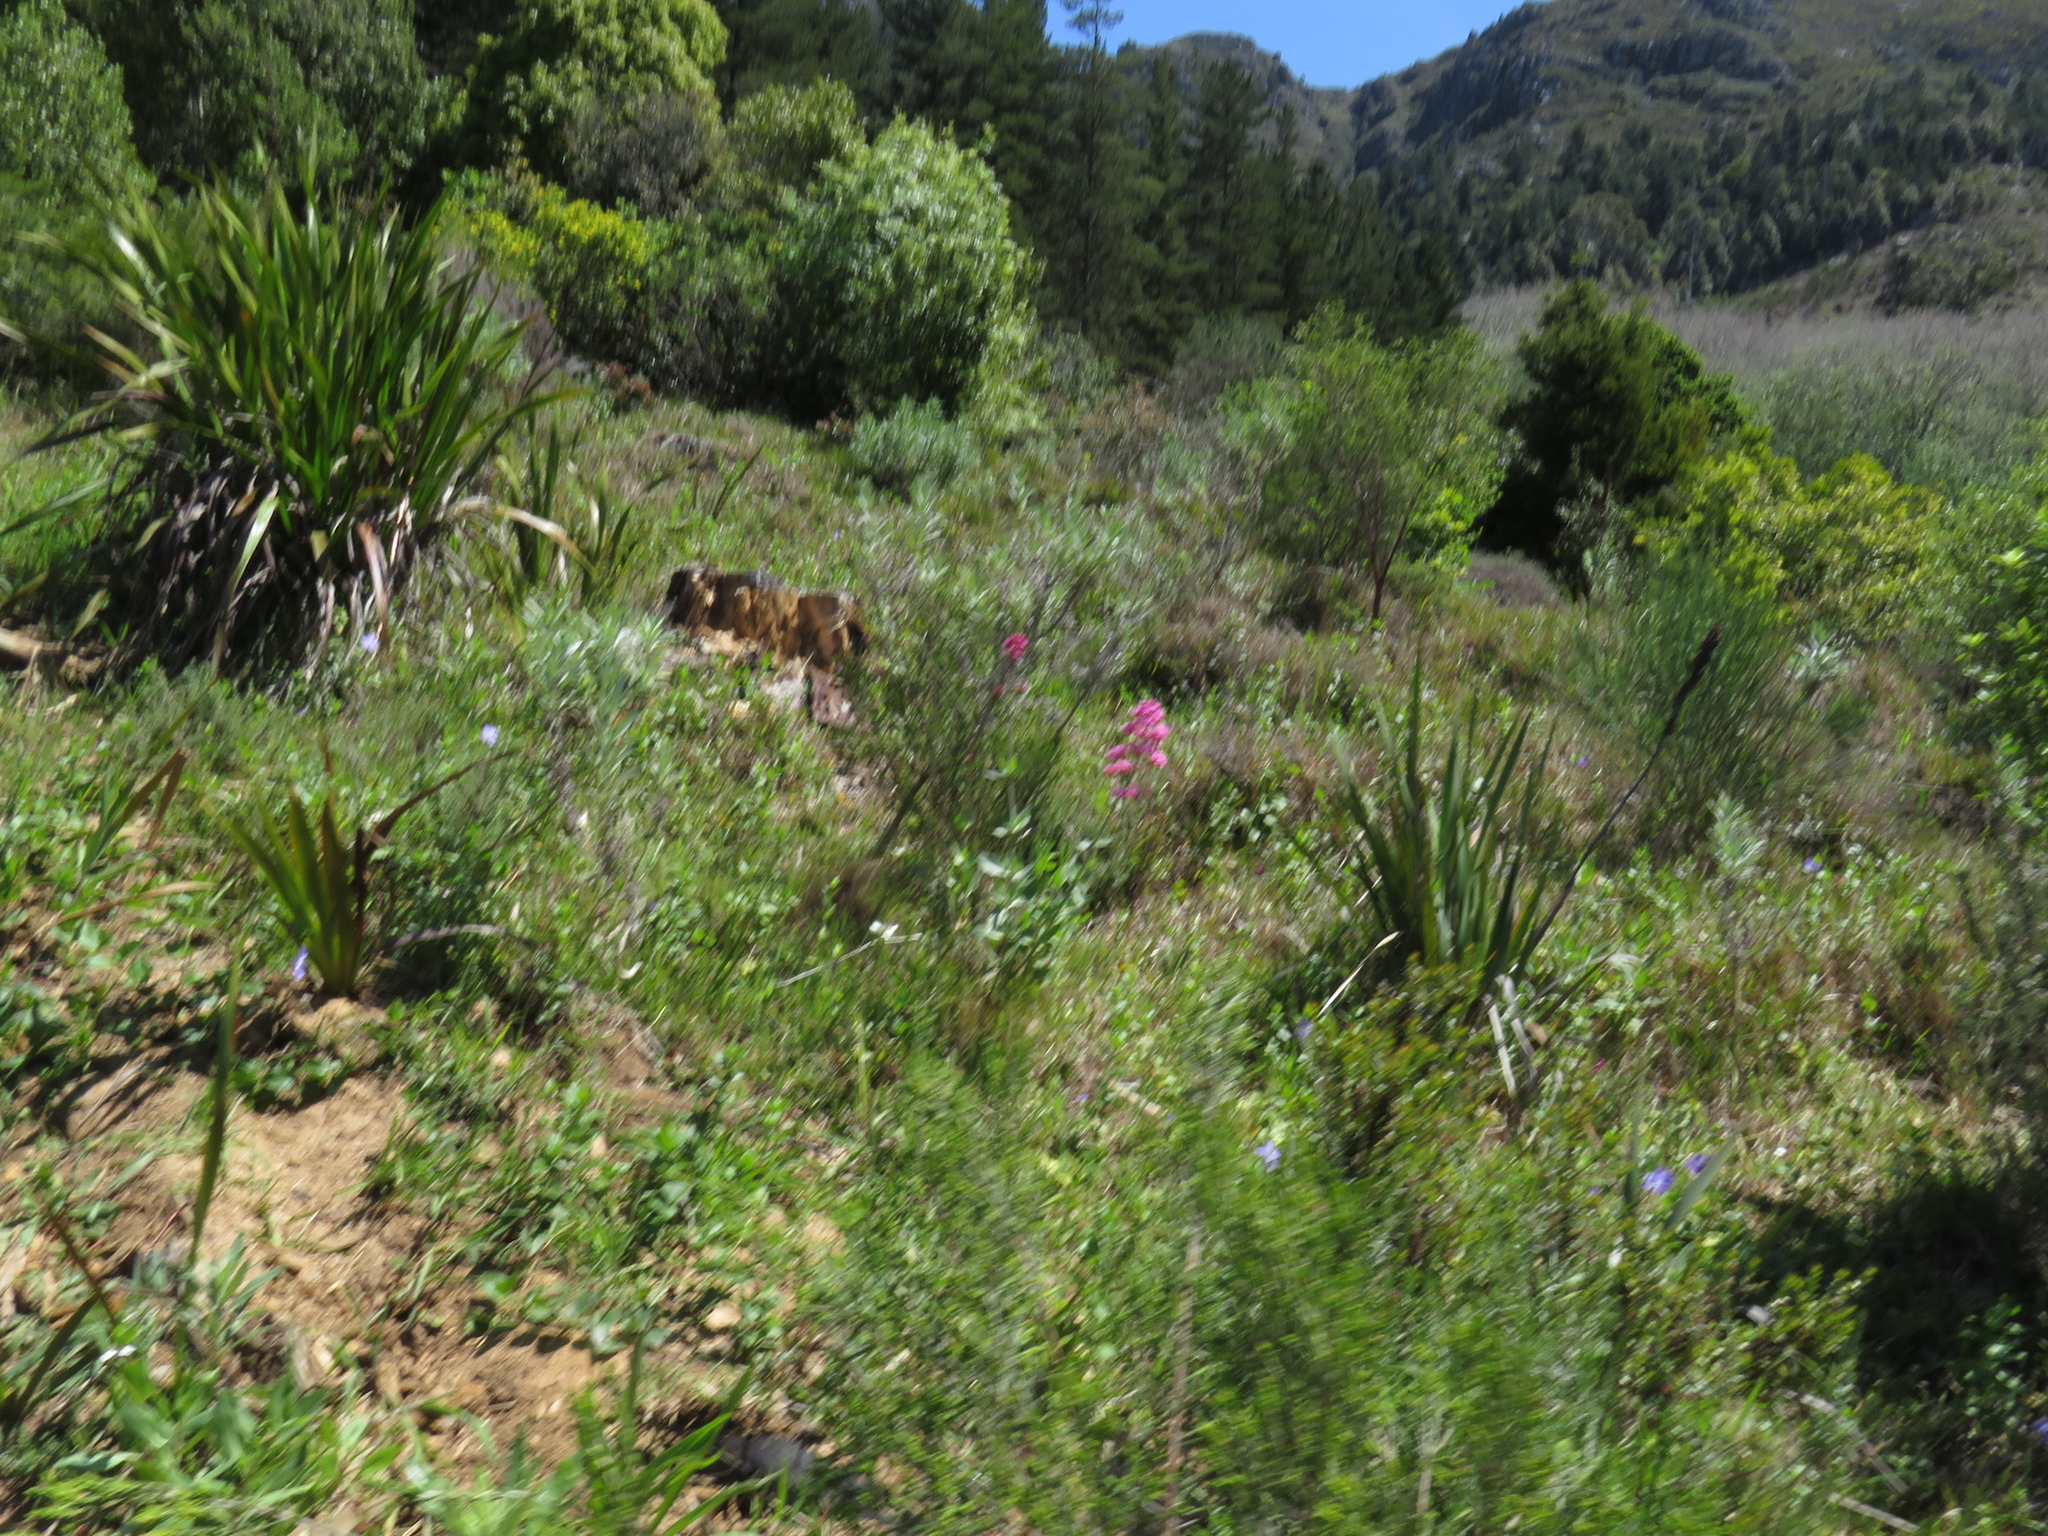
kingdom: Plantae
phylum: Tracheophyta
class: Magnoliopsida
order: Dipsacales
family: Caprifoliaceae
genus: Centranthus
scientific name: Centranthus ruber
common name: Red valerian
